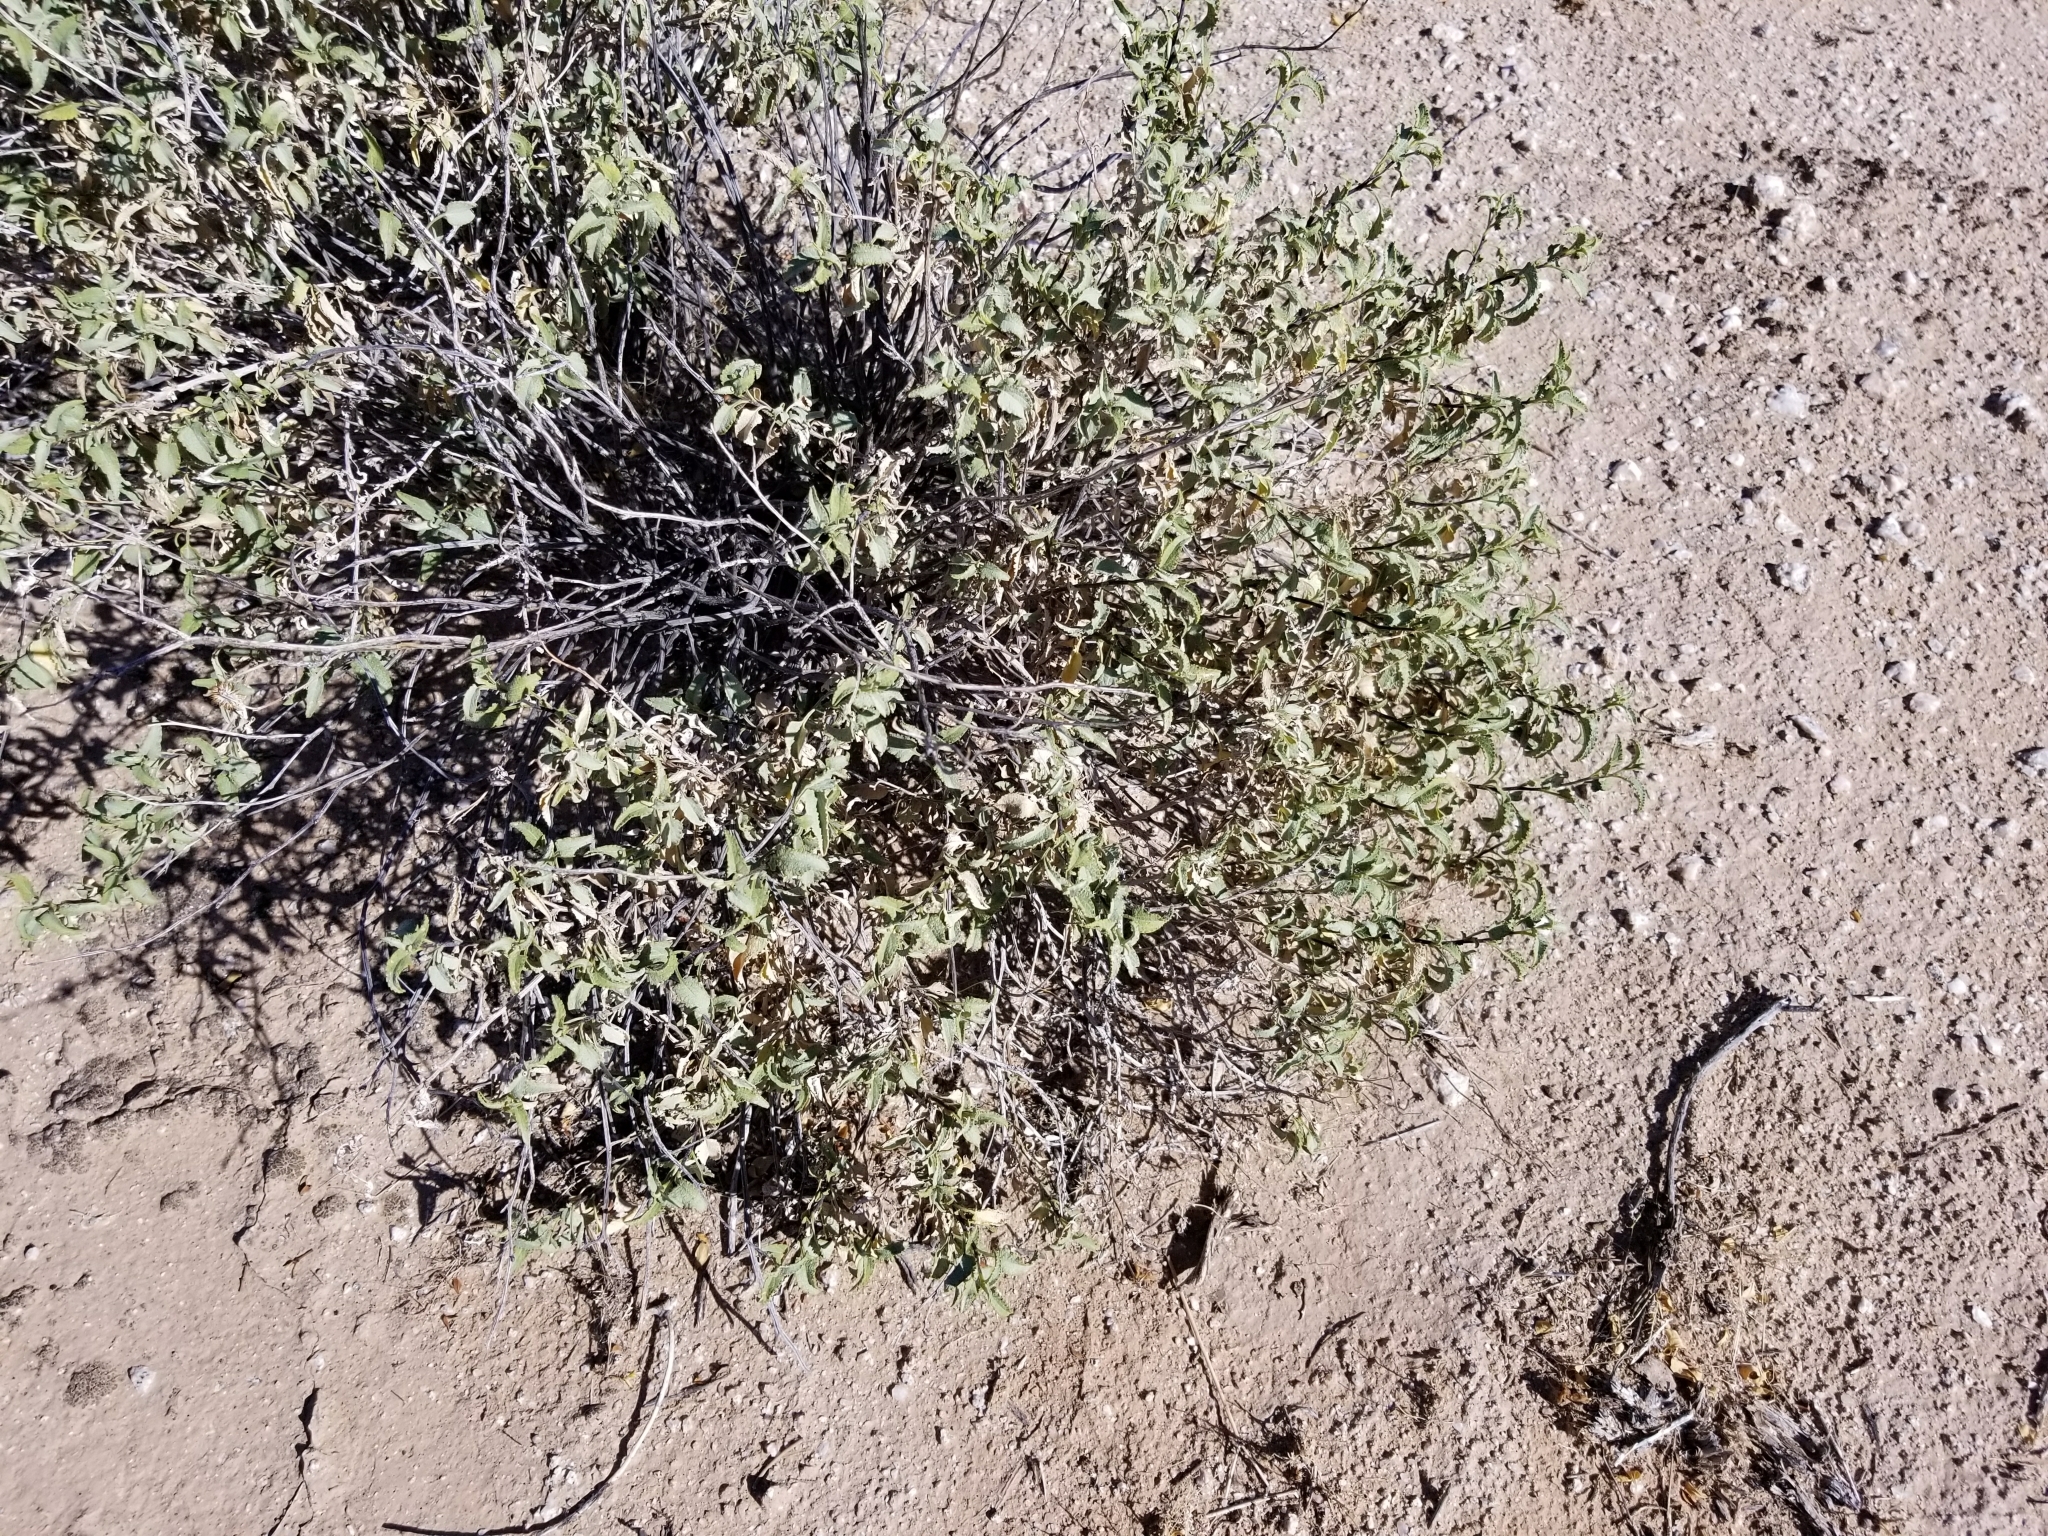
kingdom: Plantae
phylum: Tracheophyta
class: Magnoliopsida
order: Asterales
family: Asteraceae
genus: Ambrosia
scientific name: Ambrosia deltoidea
